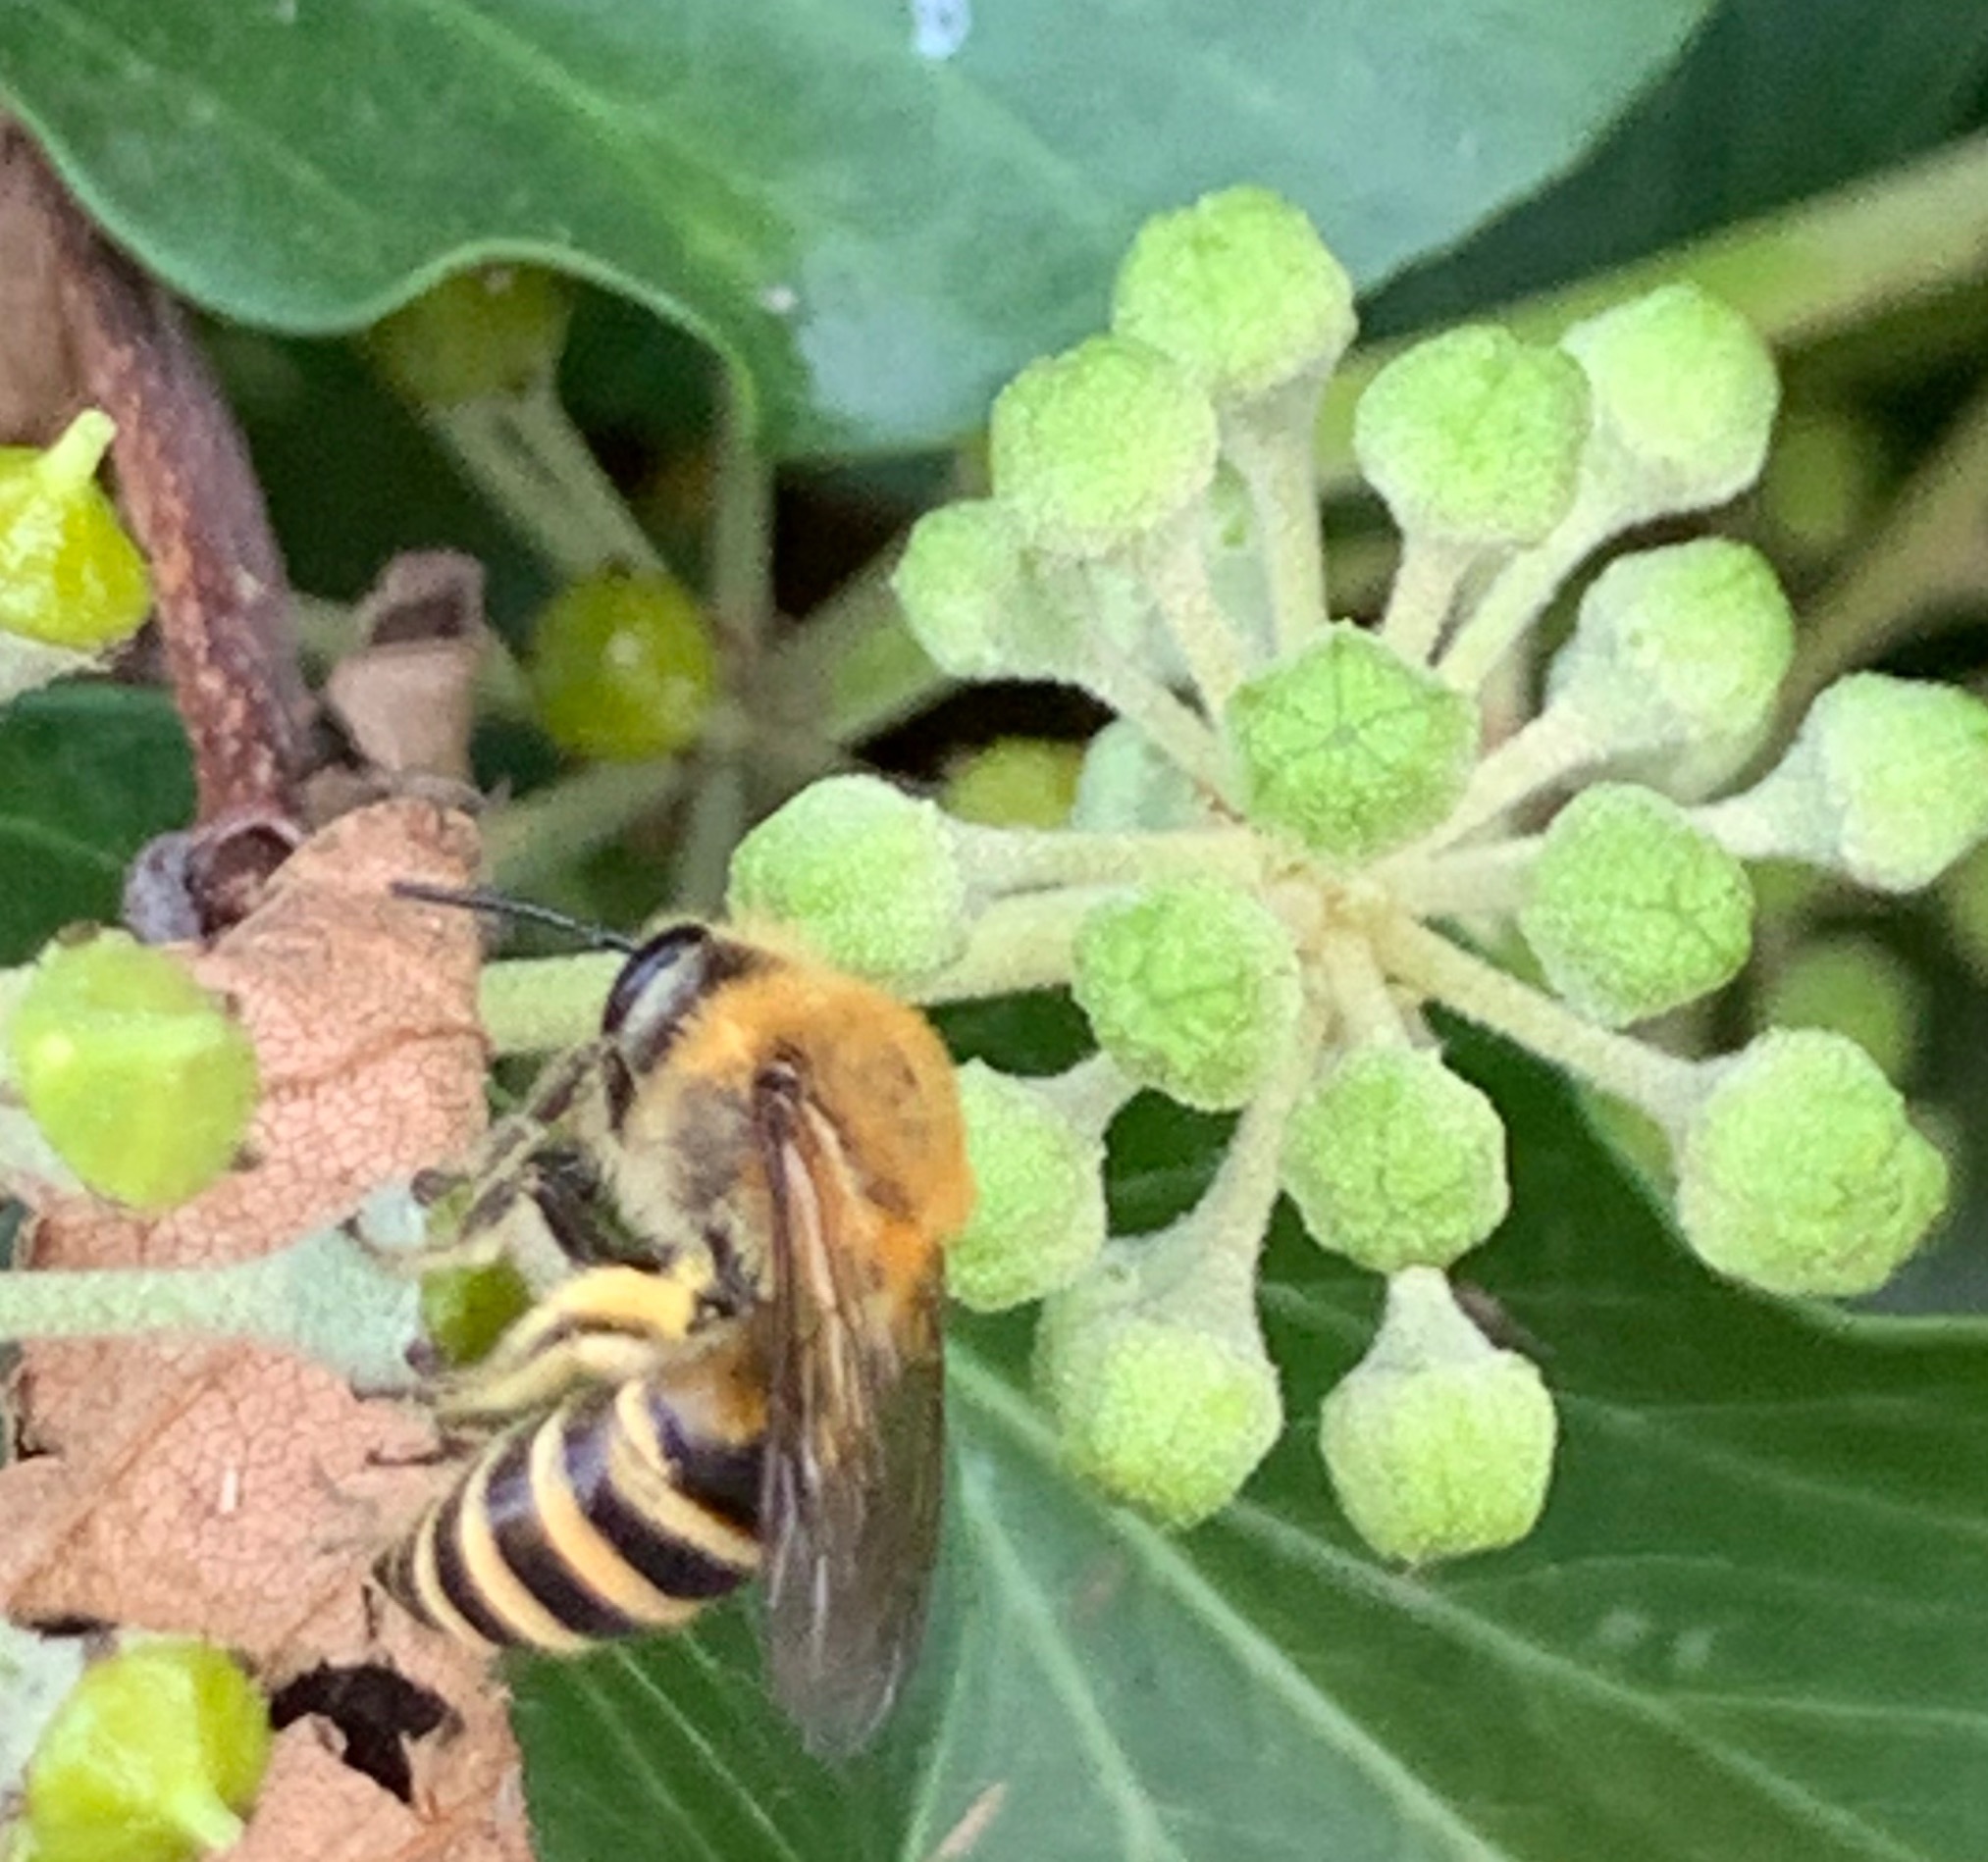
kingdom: Animalia
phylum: Arthropoda
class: Insecta
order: Hymenoptera
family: Colletidae
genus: Colletes
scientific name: Colletes hederae
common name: Ivy bee
